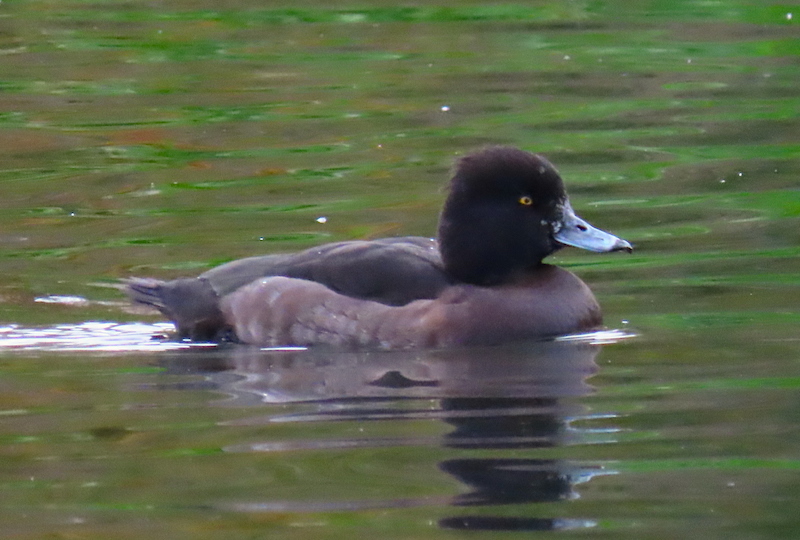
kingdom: Animalia
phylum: Chordata
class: Aves
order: Anseriformes
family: Anatidae
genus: Aythya
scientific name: Aythya fuligula
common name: Tufted duck
